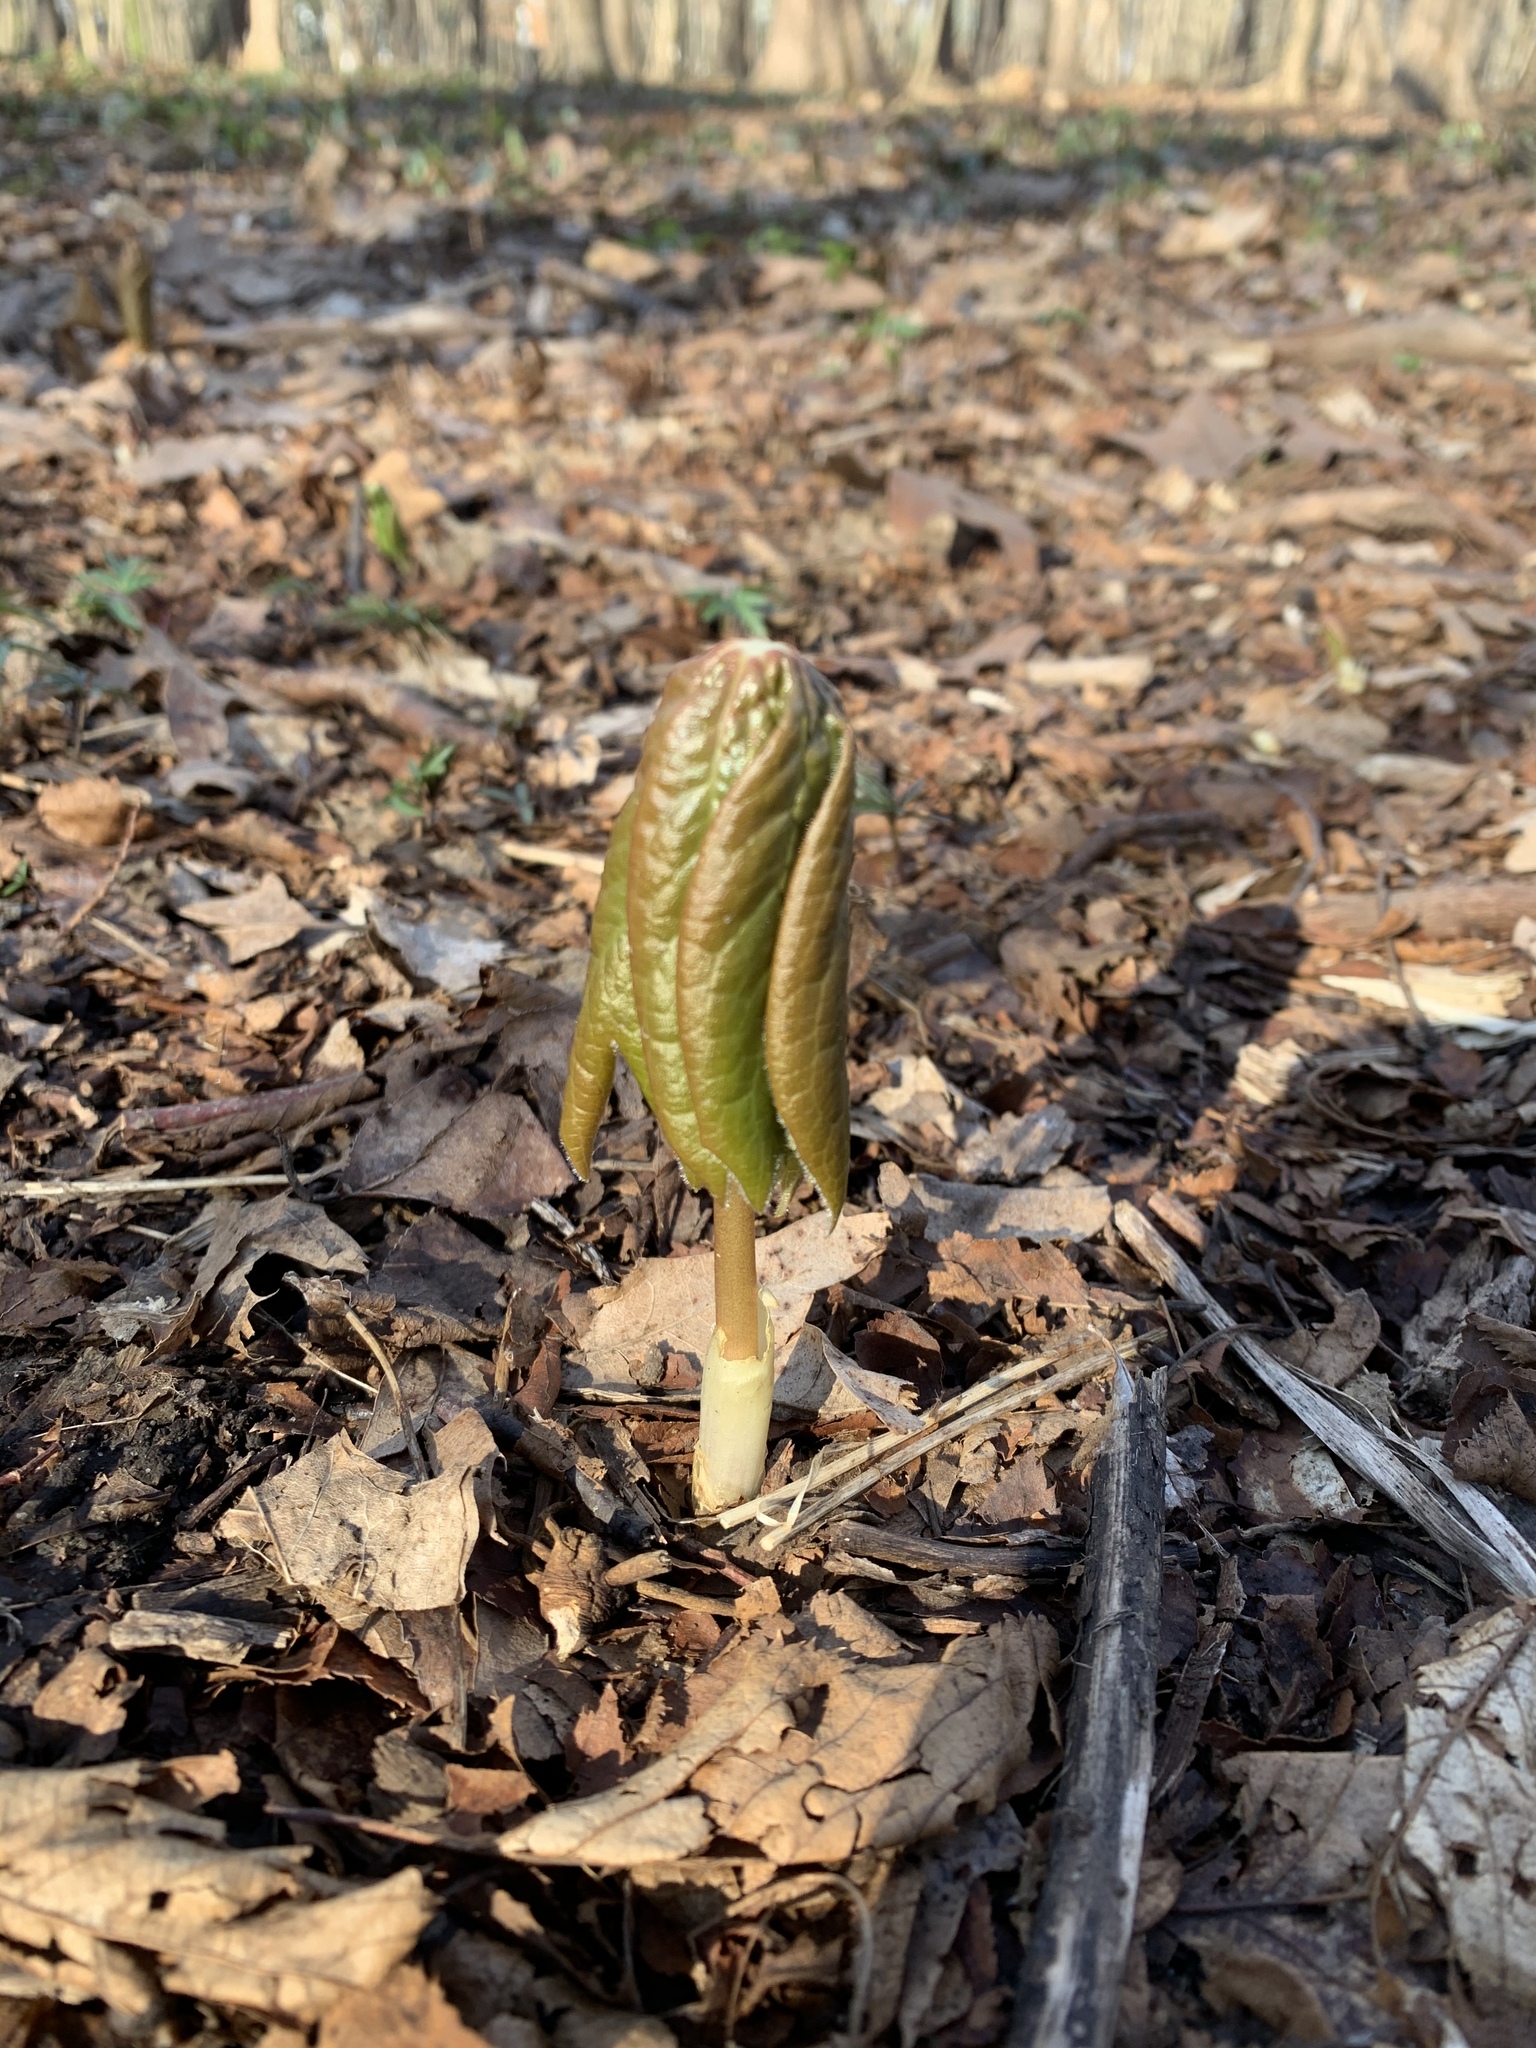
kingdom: Plantae
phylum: Tracheophyta
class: Magnoliopsida
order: Ranunculales
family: Berberidaceae
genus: Podophyllum
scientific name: Podophyllum peltatum
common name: Wild mandrake
